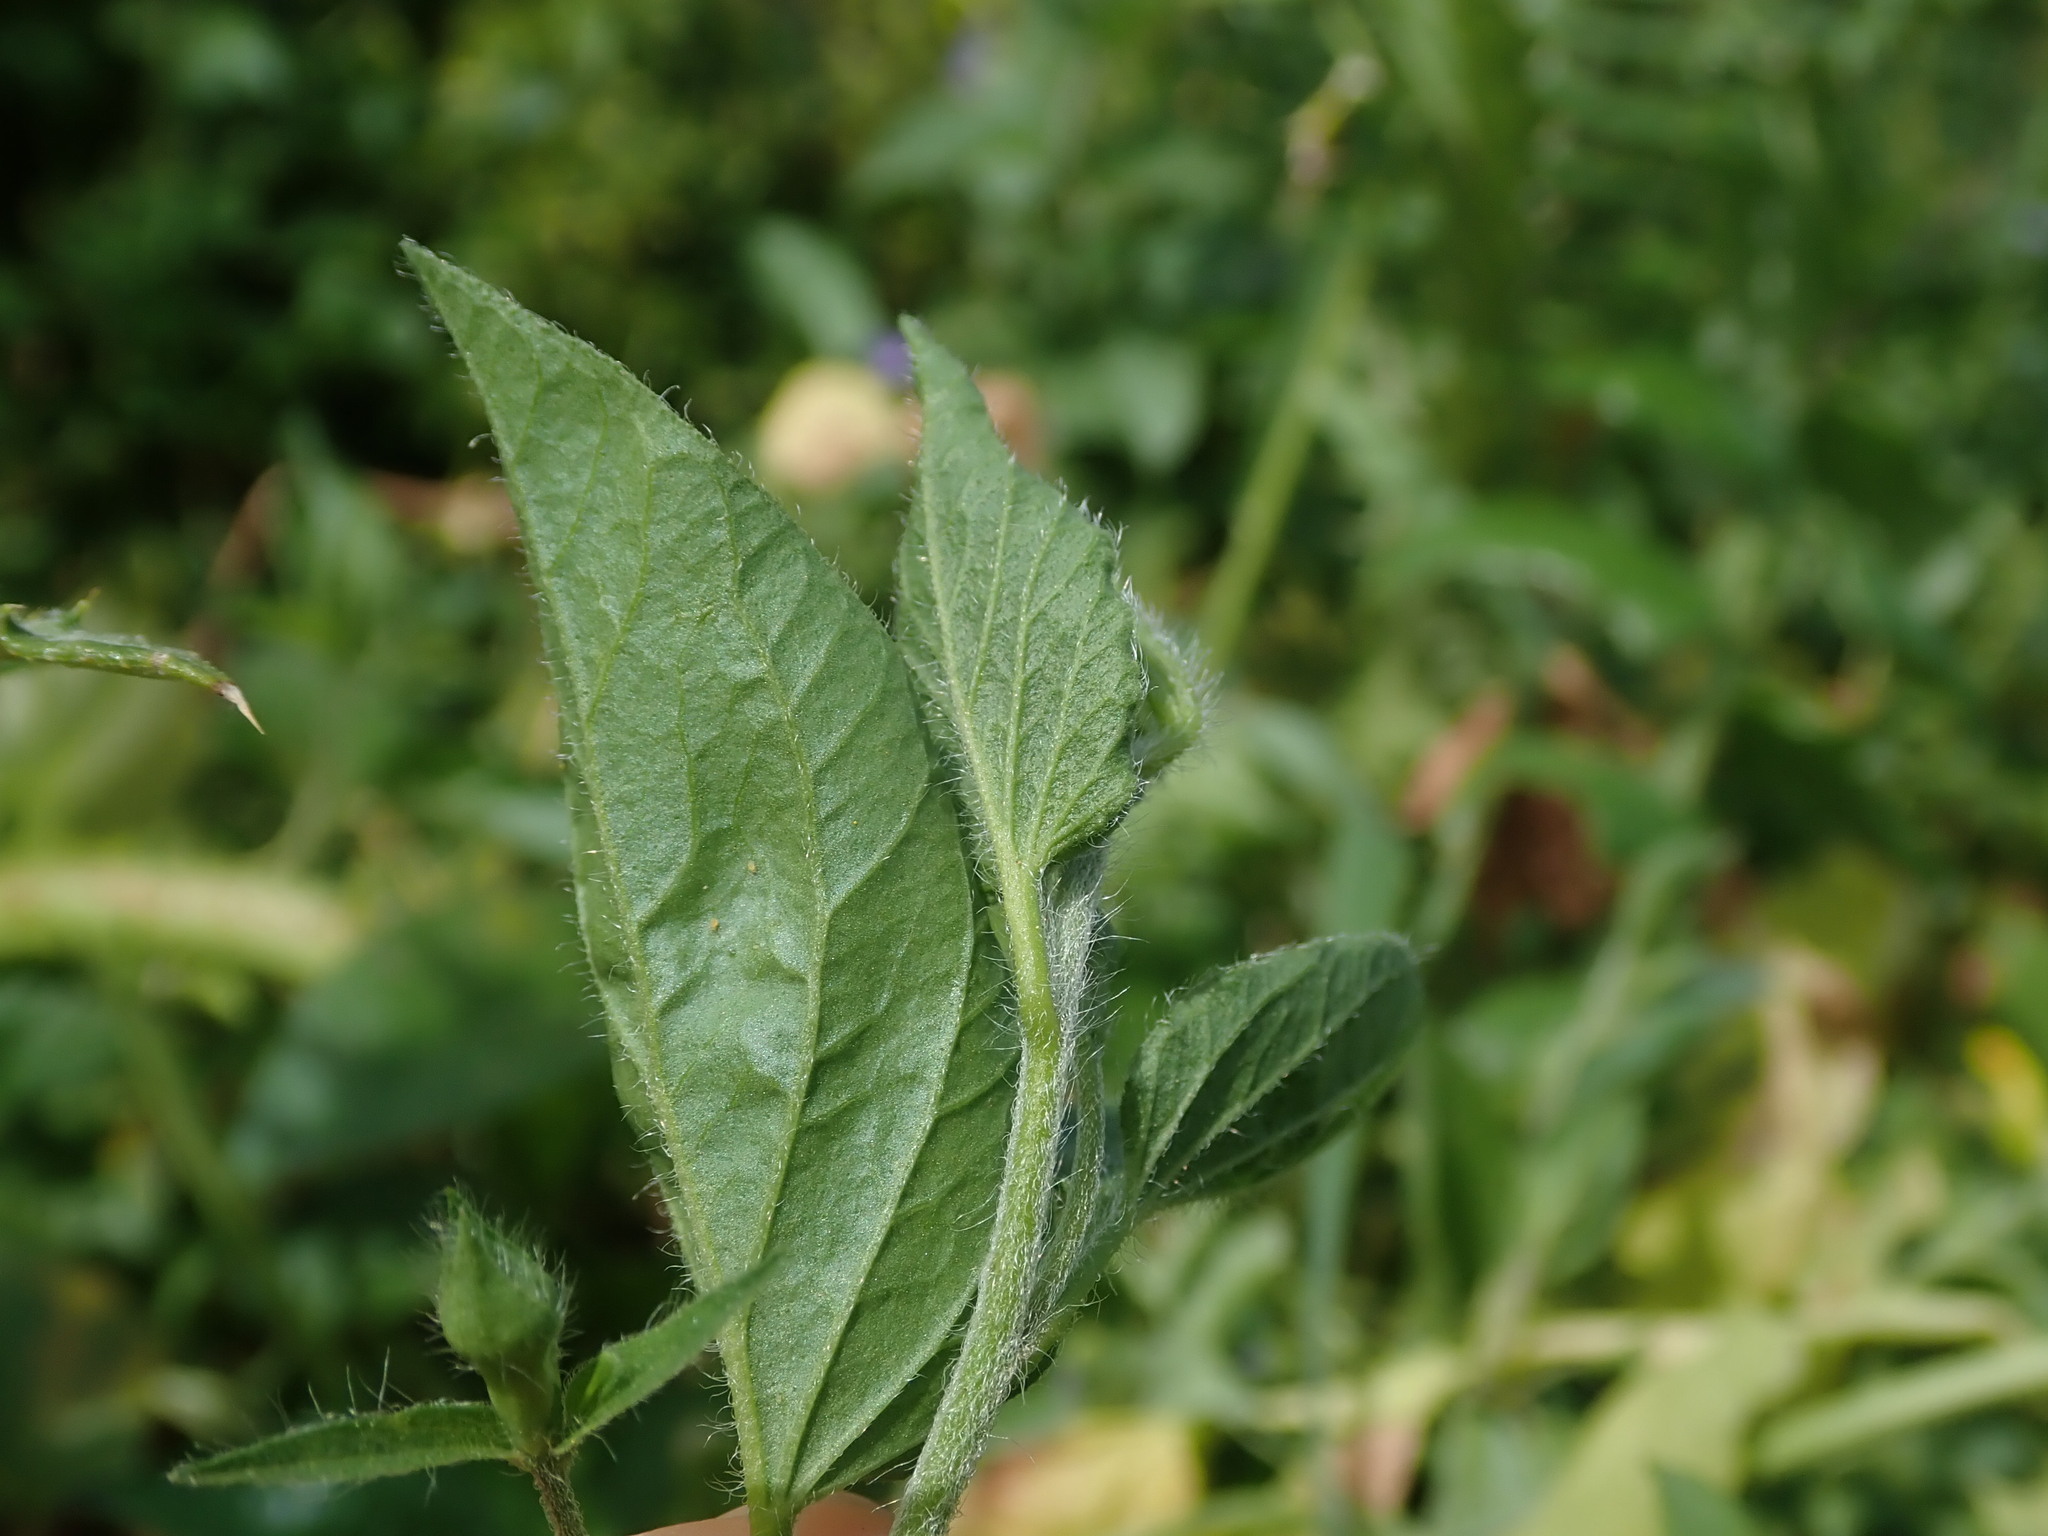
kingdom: Plantae
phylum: Tracheophyta
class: Magnoliopsida
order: Solanales
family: Convolvulaceae
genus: Convolvulus
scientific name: Convolvulus siculus
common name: Small blue-convolvulus
